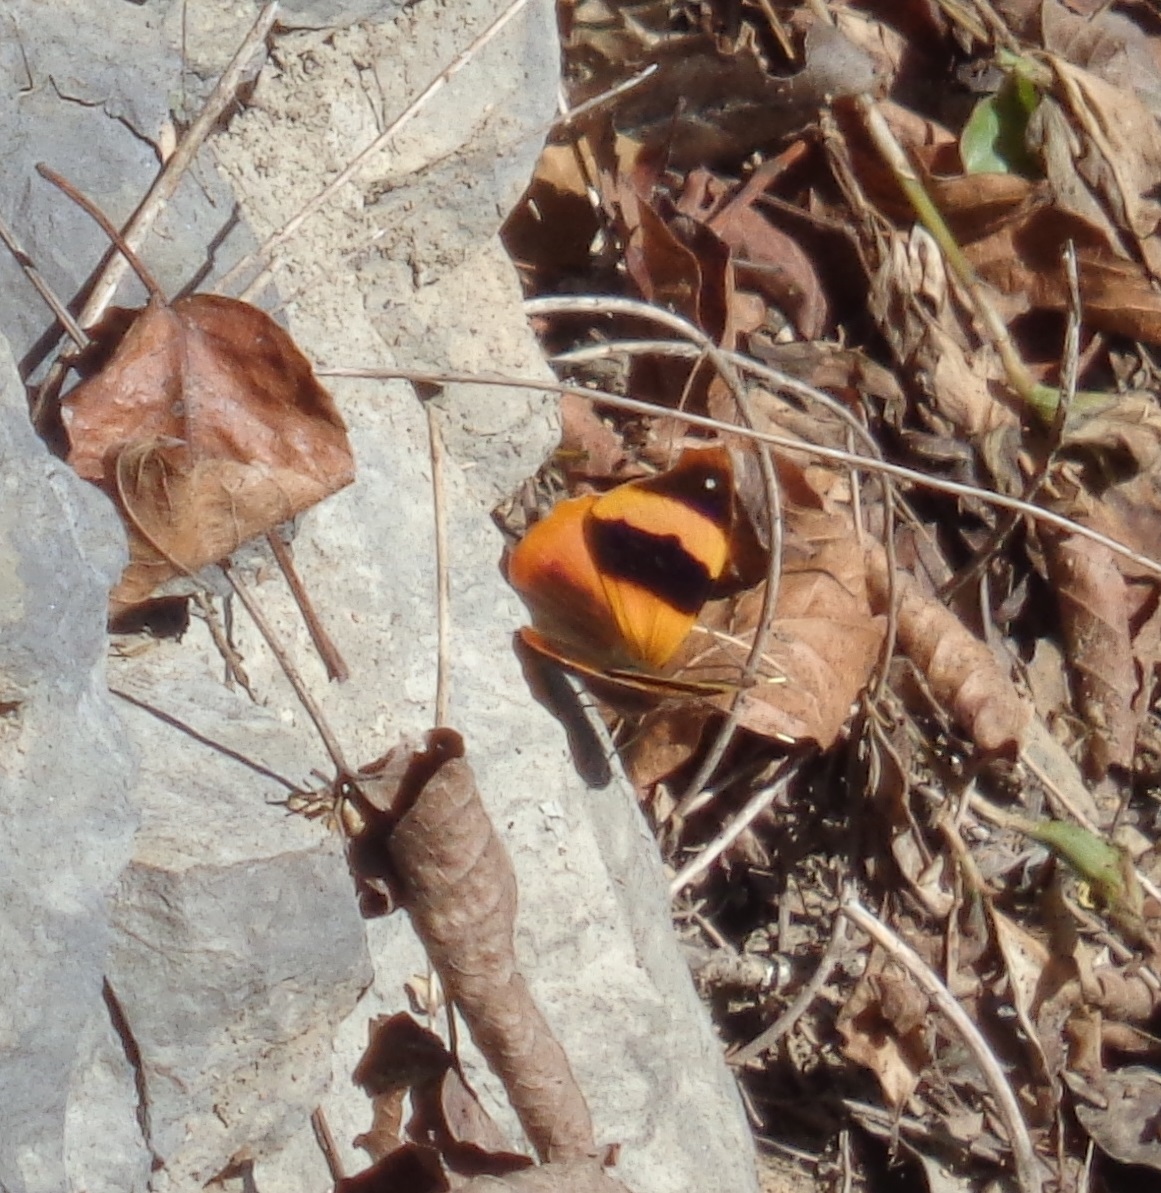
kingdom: Animalia
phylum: Arthropoda
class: Insecta
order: Lepidoptera
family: Nymphalidae
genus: Epiphile
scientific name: Epiphile adrasta
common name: Common banner
